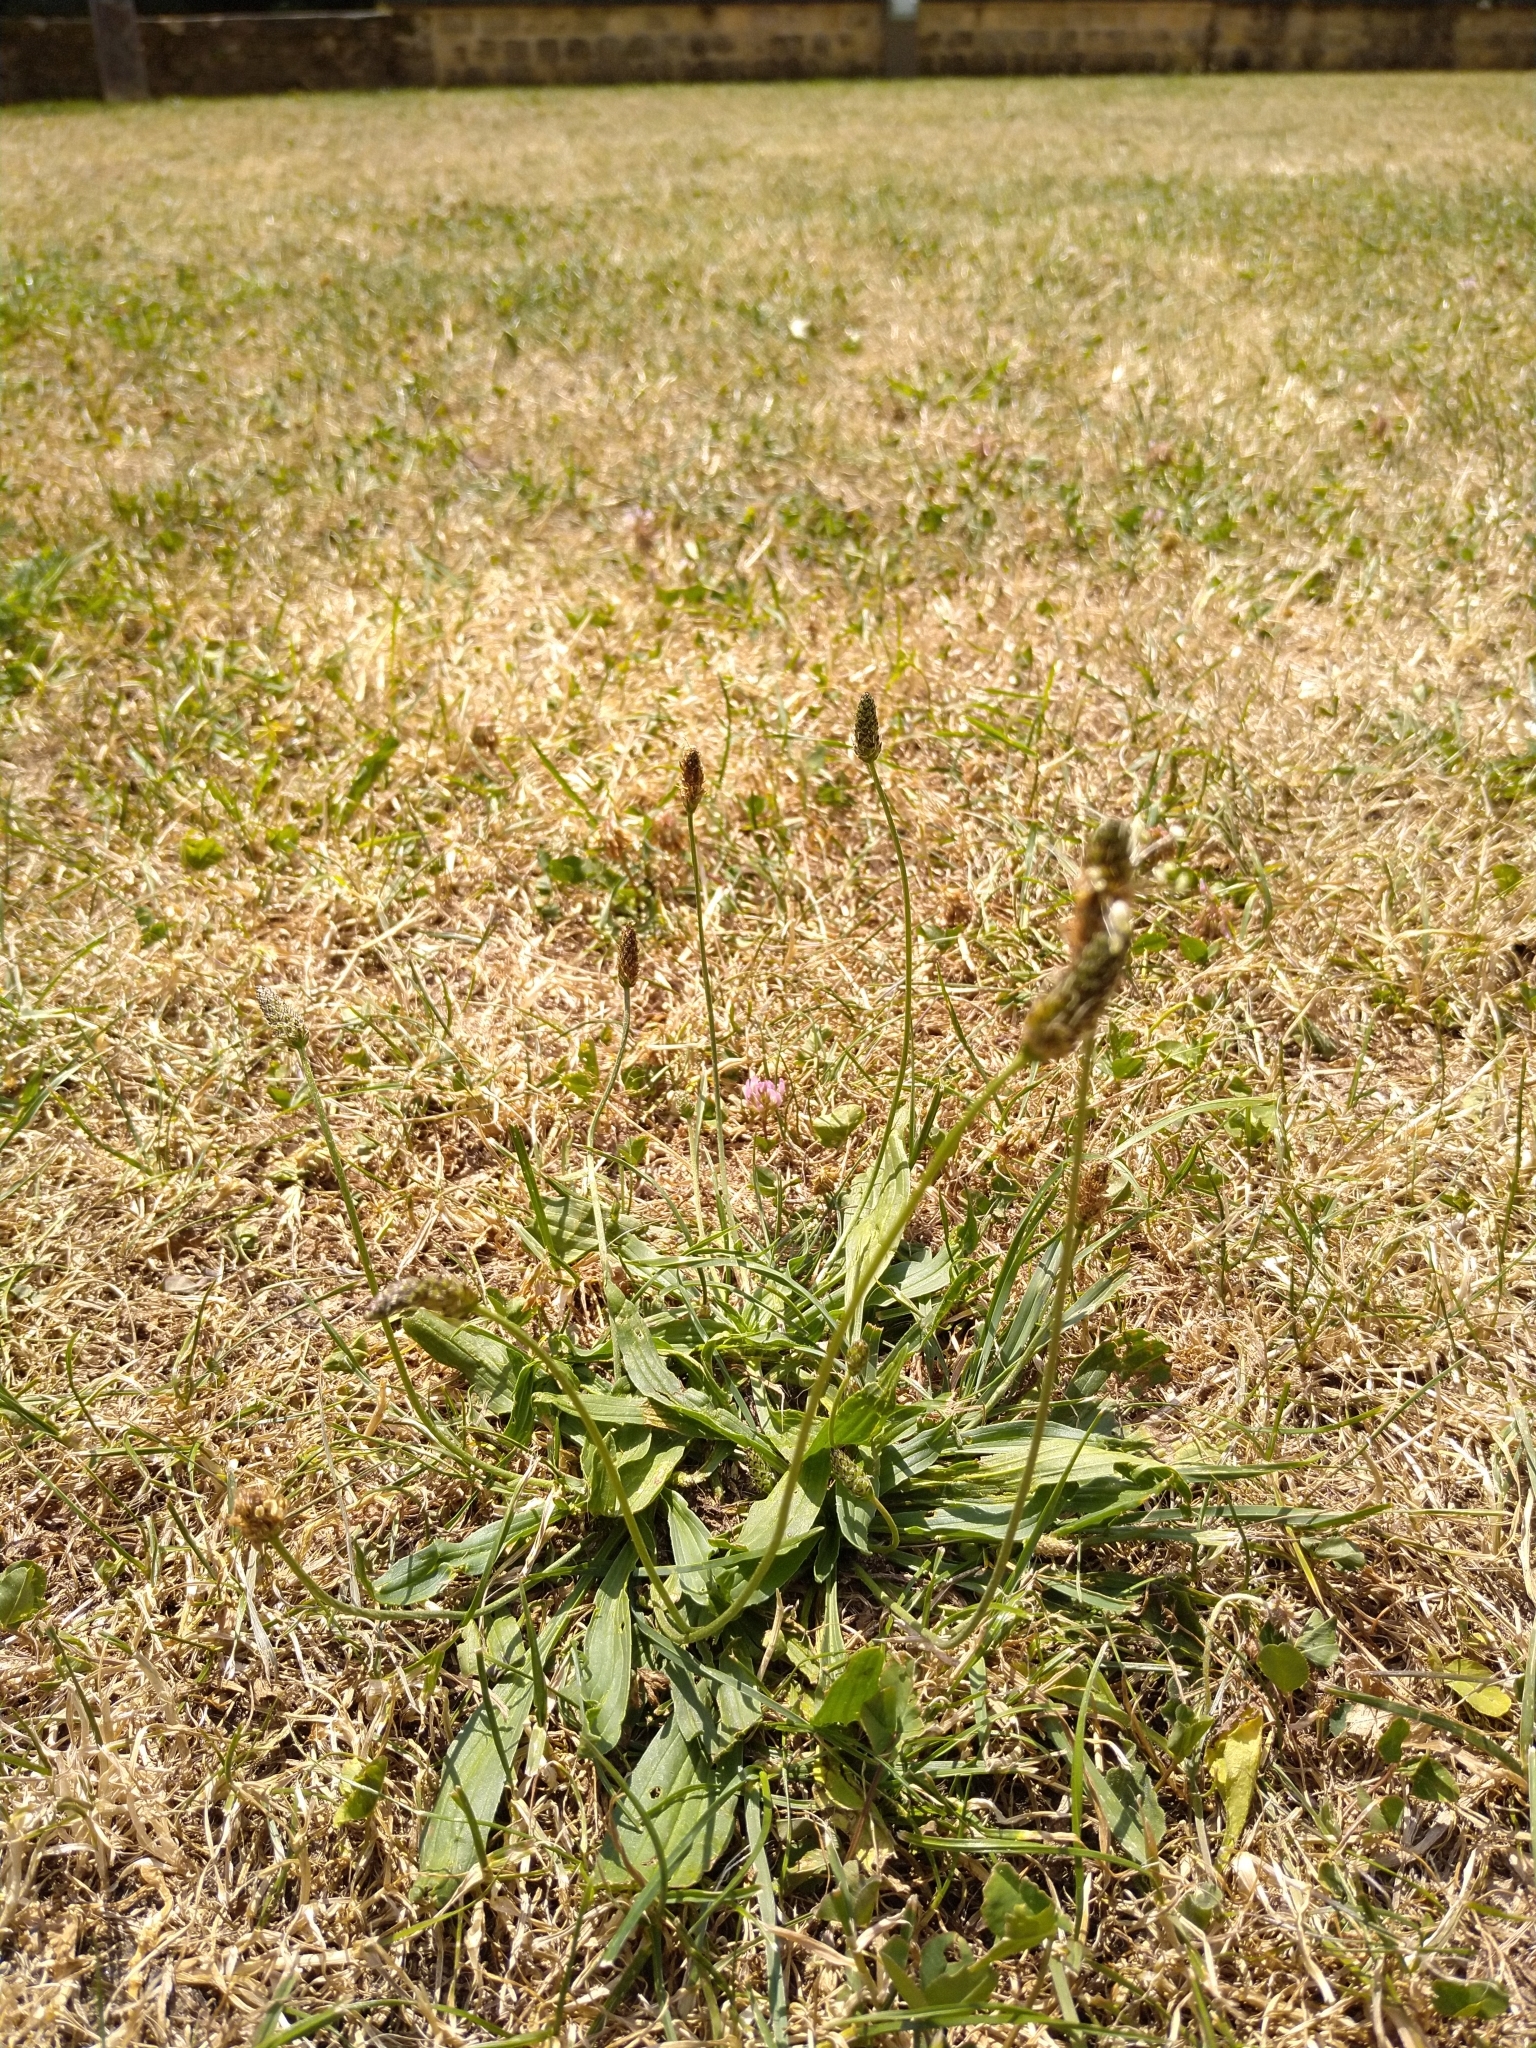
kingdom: Plantae
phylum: Tracheophyta
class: Magnoliopsida
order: Lamiales
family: Plantaginaceae
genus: Plantago
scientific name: Plantago lanceolata
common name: Ribwort plantain
